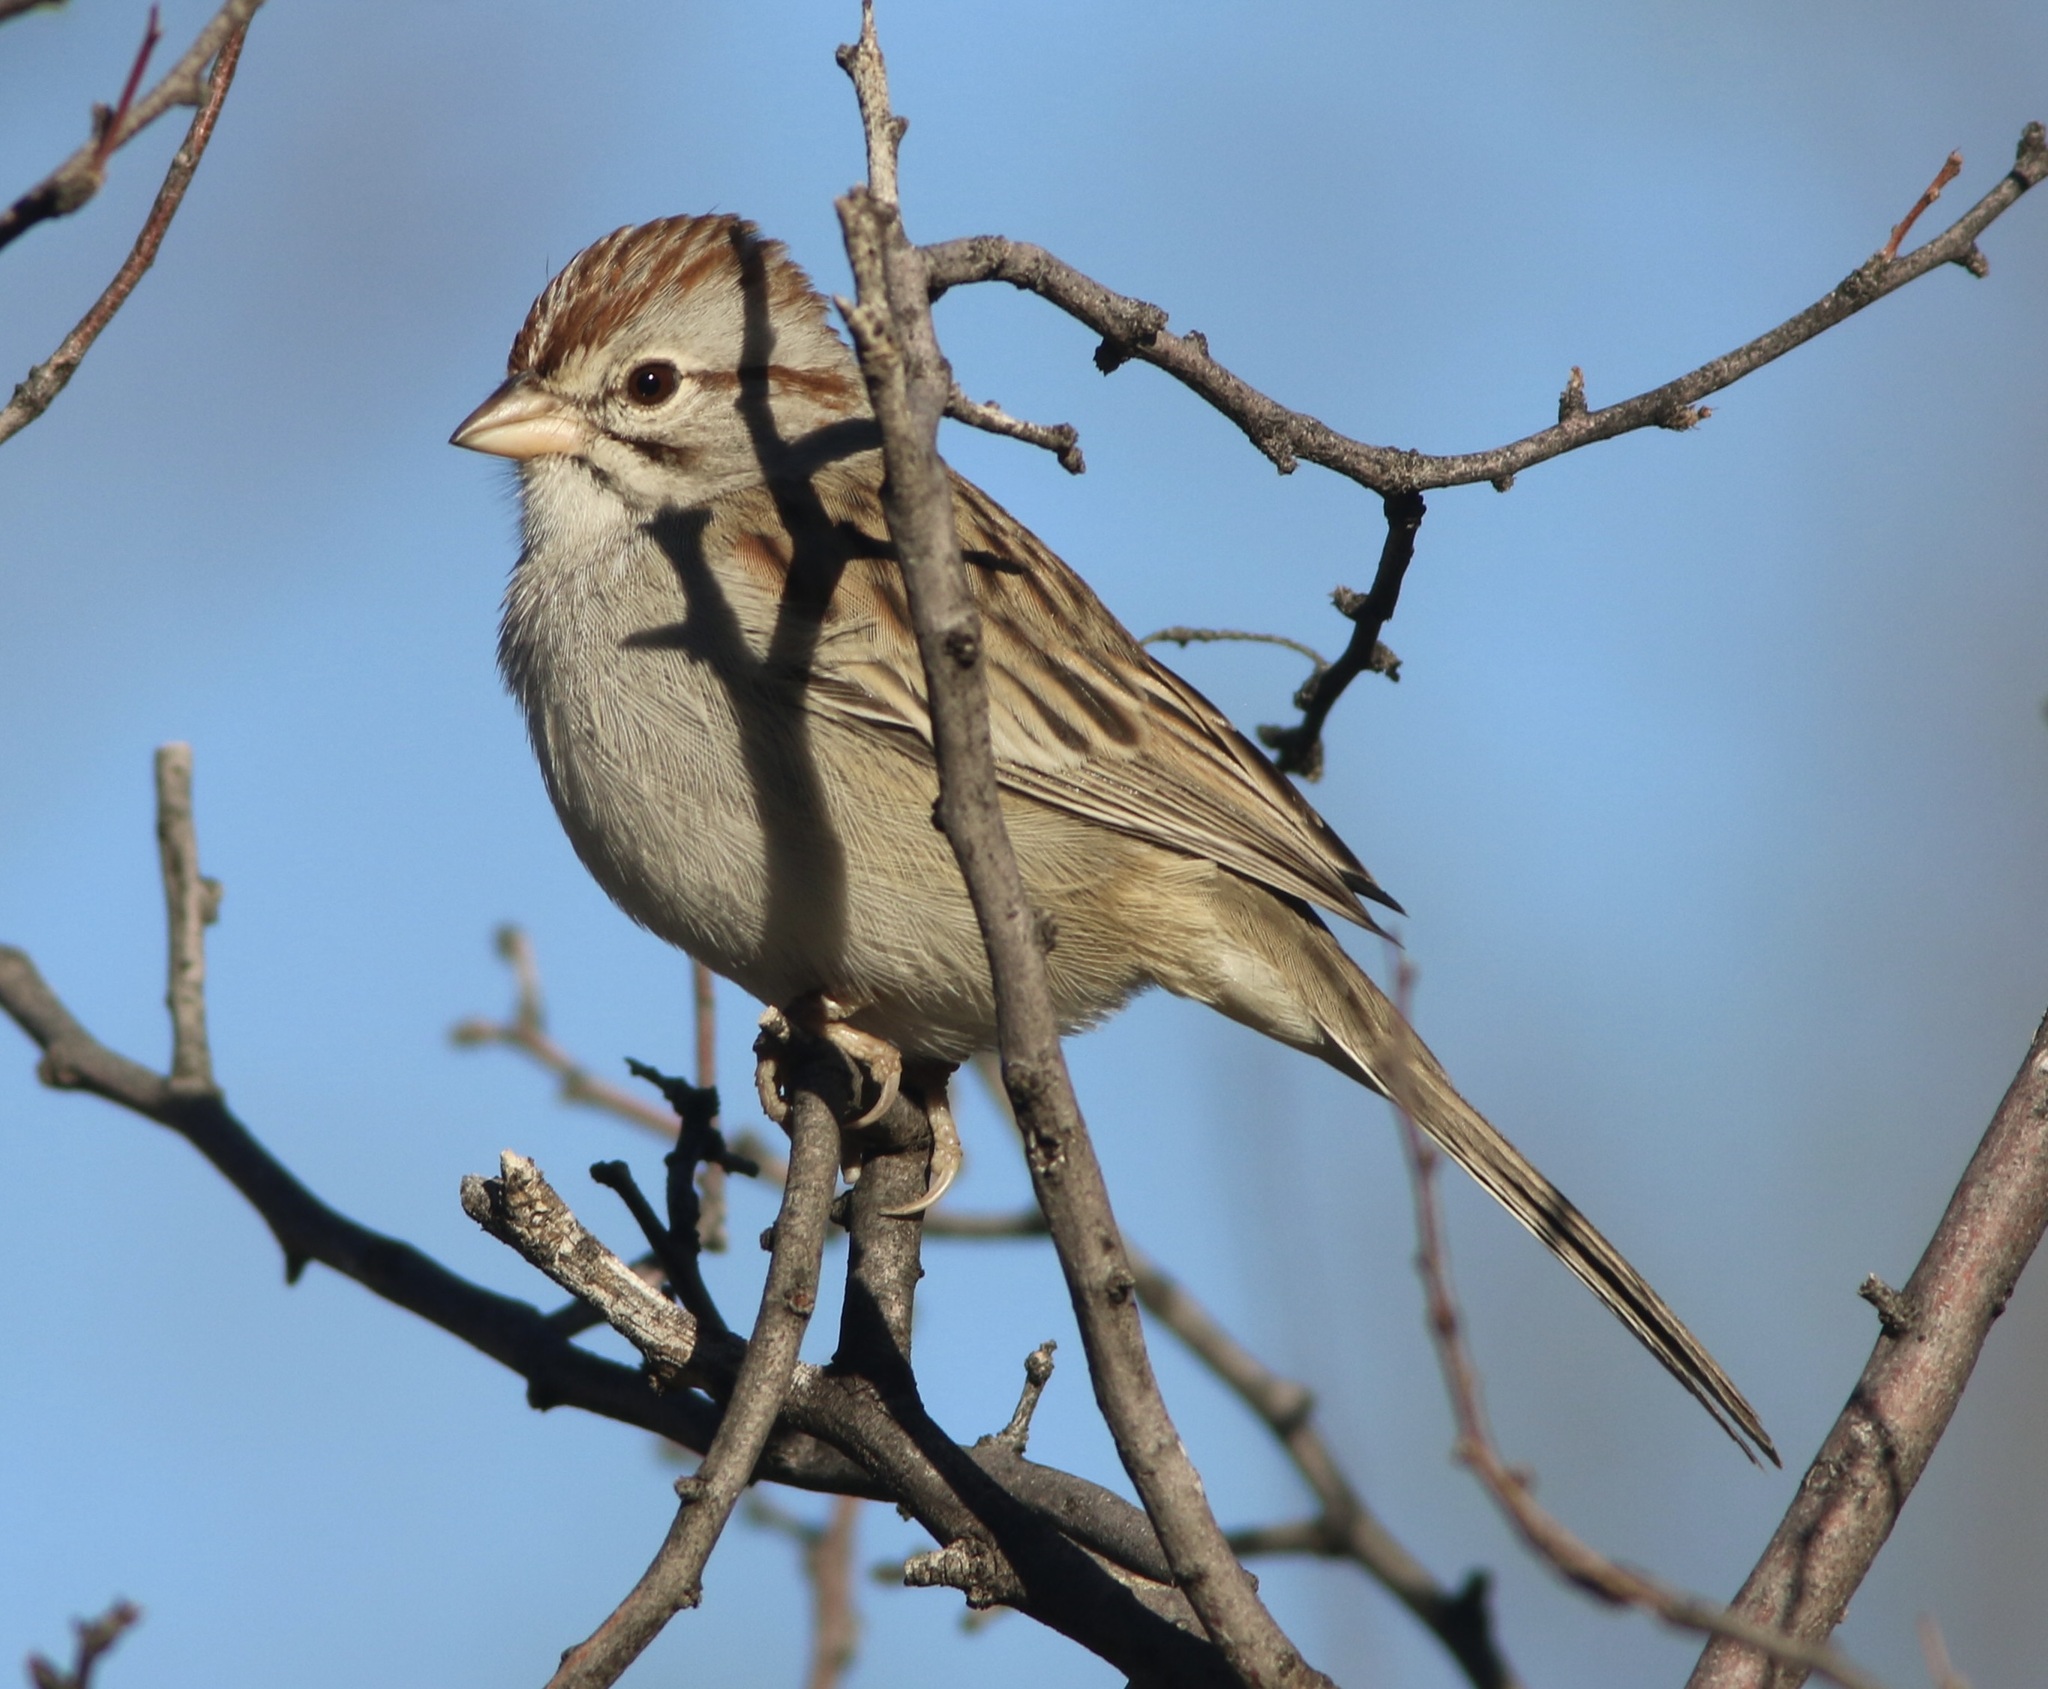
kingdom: Animalia
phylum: Chordata
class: Aves
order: Passeriformes
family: Passerellidae
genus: Peucaea
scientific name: Peucaea carpalis
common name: Rufous-winged sparrow
